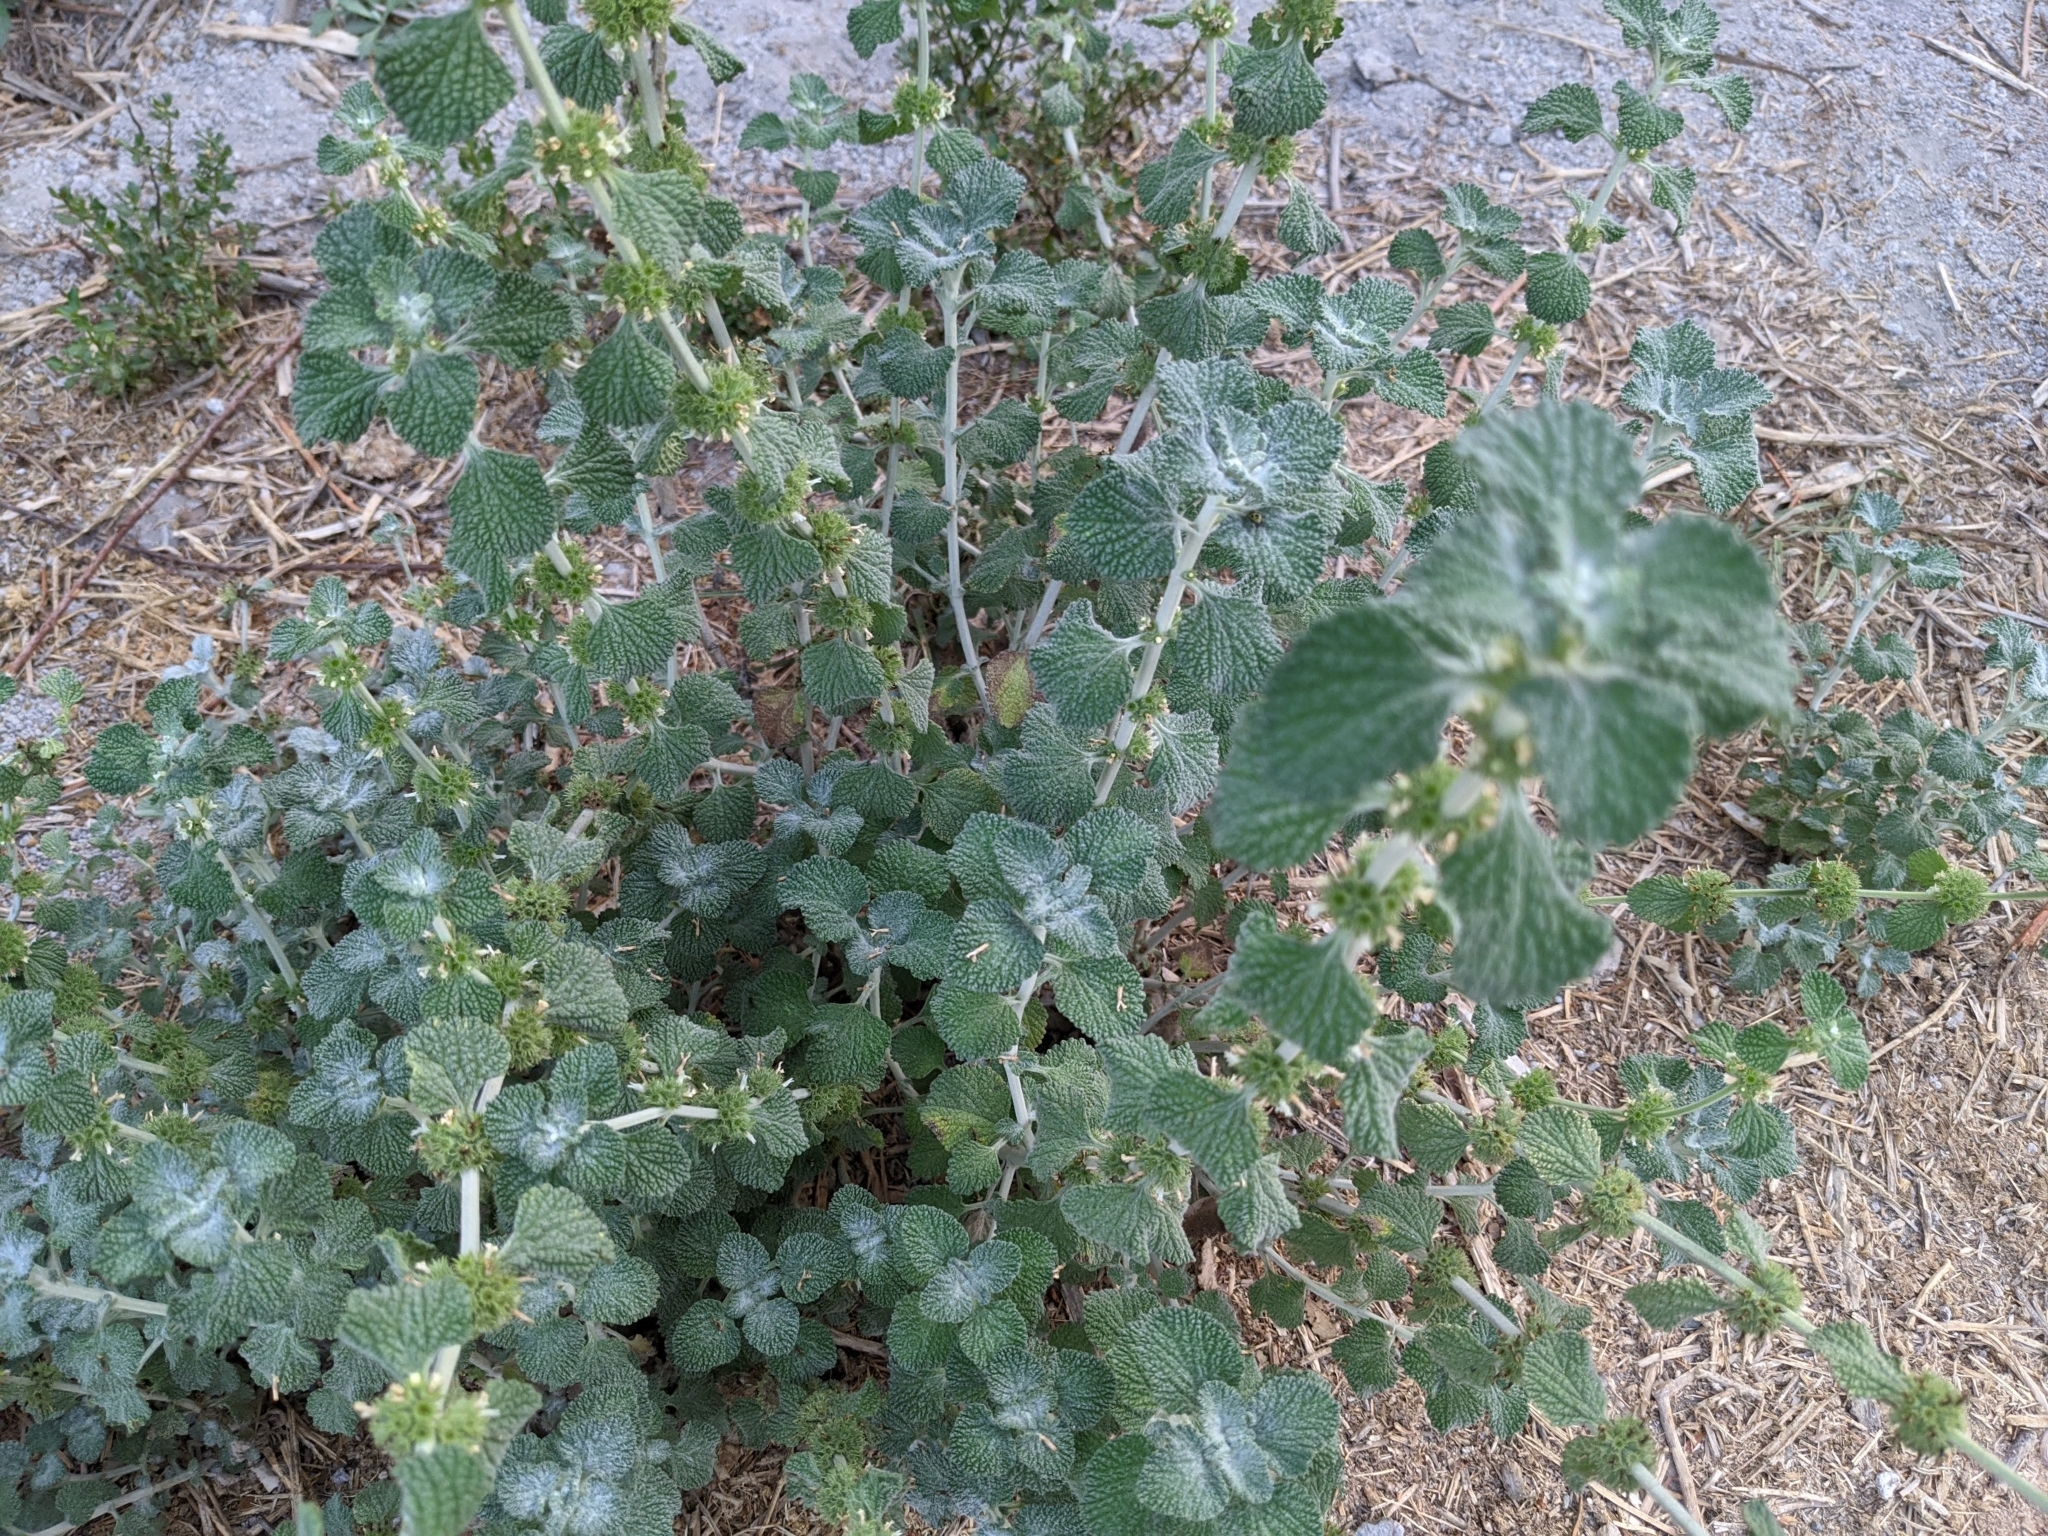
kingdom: Plantae
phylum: Tracheophyta
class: Magnoliopsida
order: Lamiales
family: Lamiaceae
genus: Marrubium
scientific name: Marrubium vulgare
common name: Horehound
